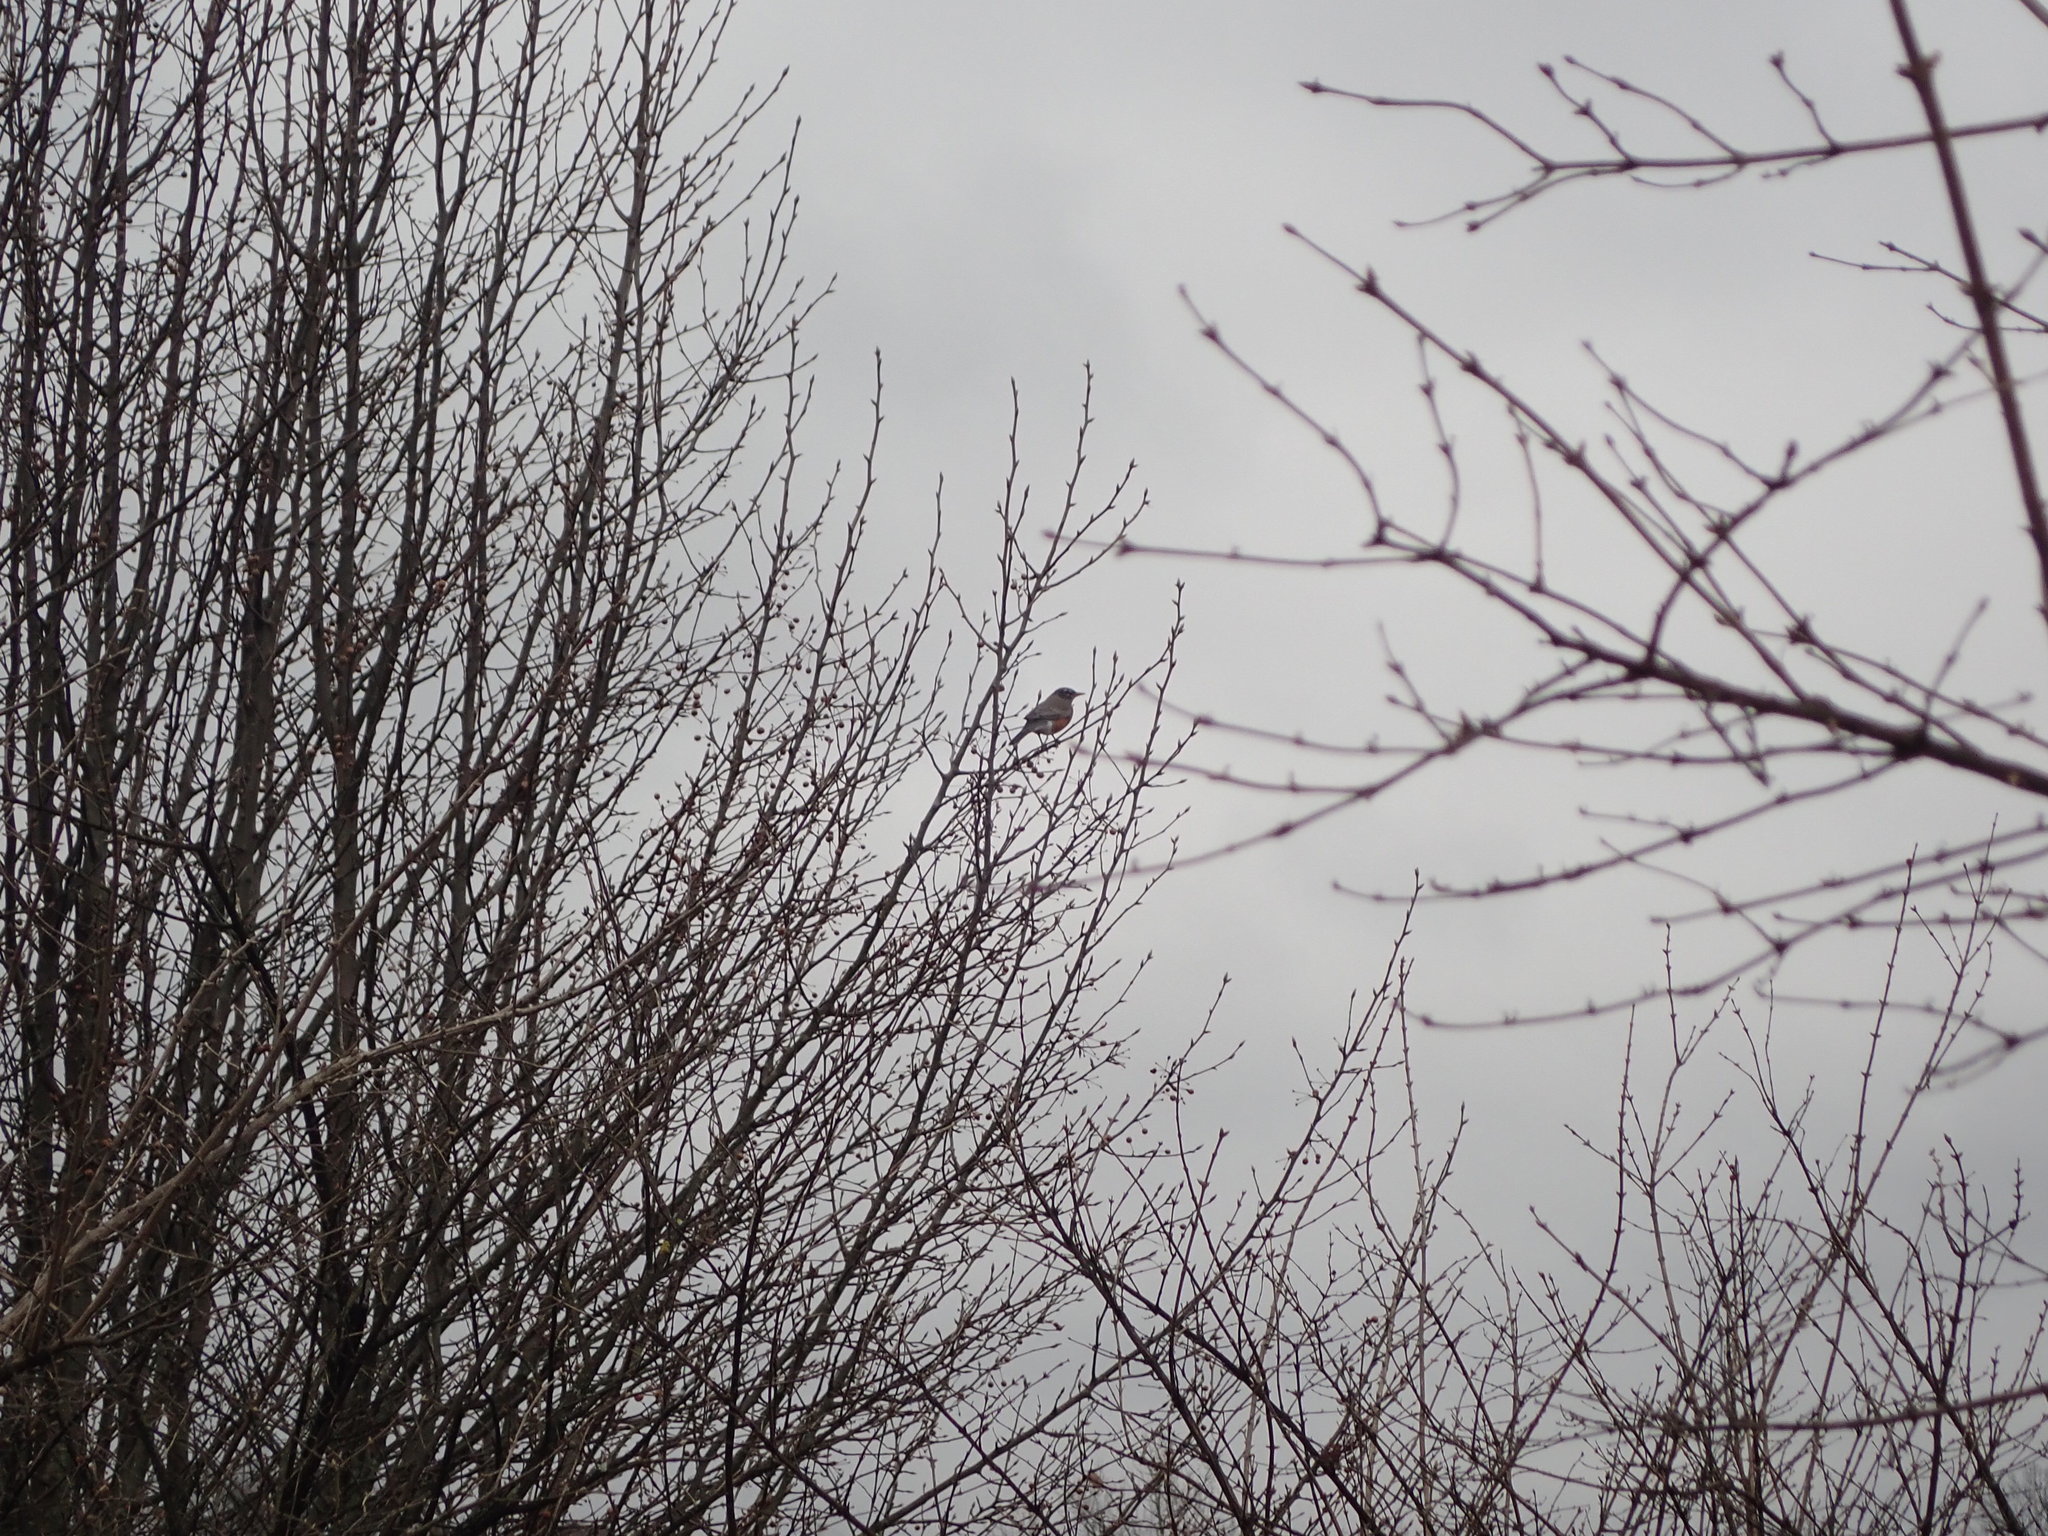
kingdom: Animalia
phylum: Chordata
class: Aves
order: Passeriformes
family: Turdidae
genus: Turdus
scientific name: Turdus migratorius
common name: American robin
